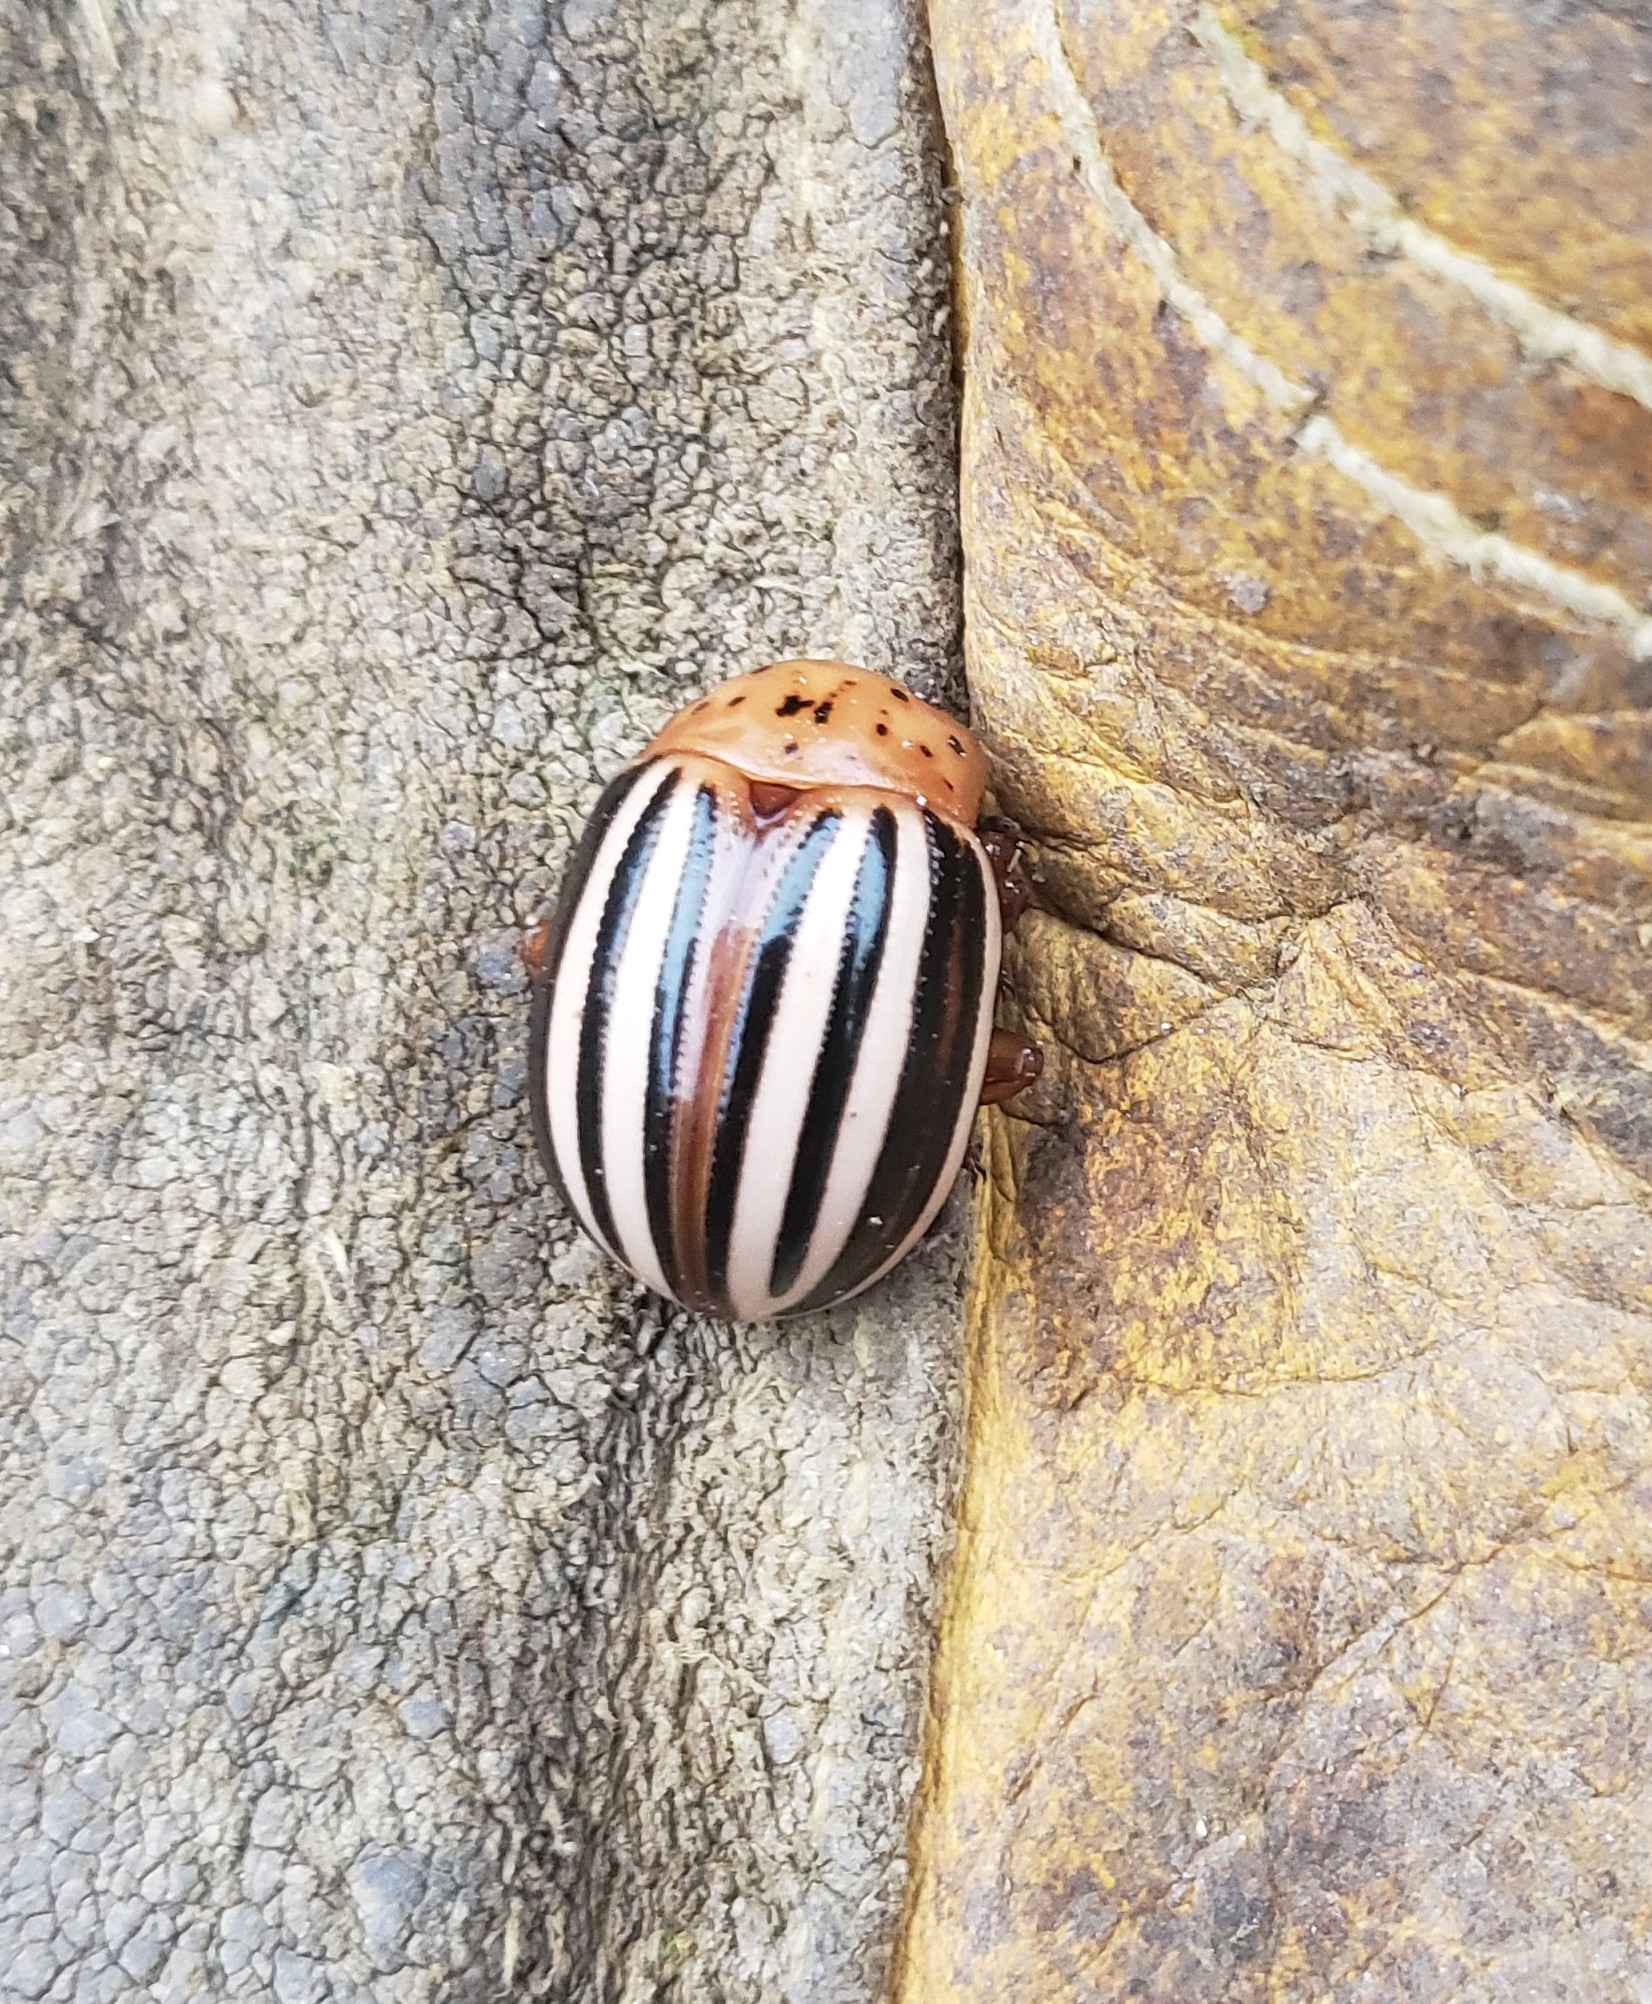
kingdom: Animalia
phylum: Arthropoda
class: Insecta
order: Coleoptera
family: Chrysomelidae
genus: Leptinotarsa
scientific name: Leptinotarsa juncta
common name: False potato beetle
